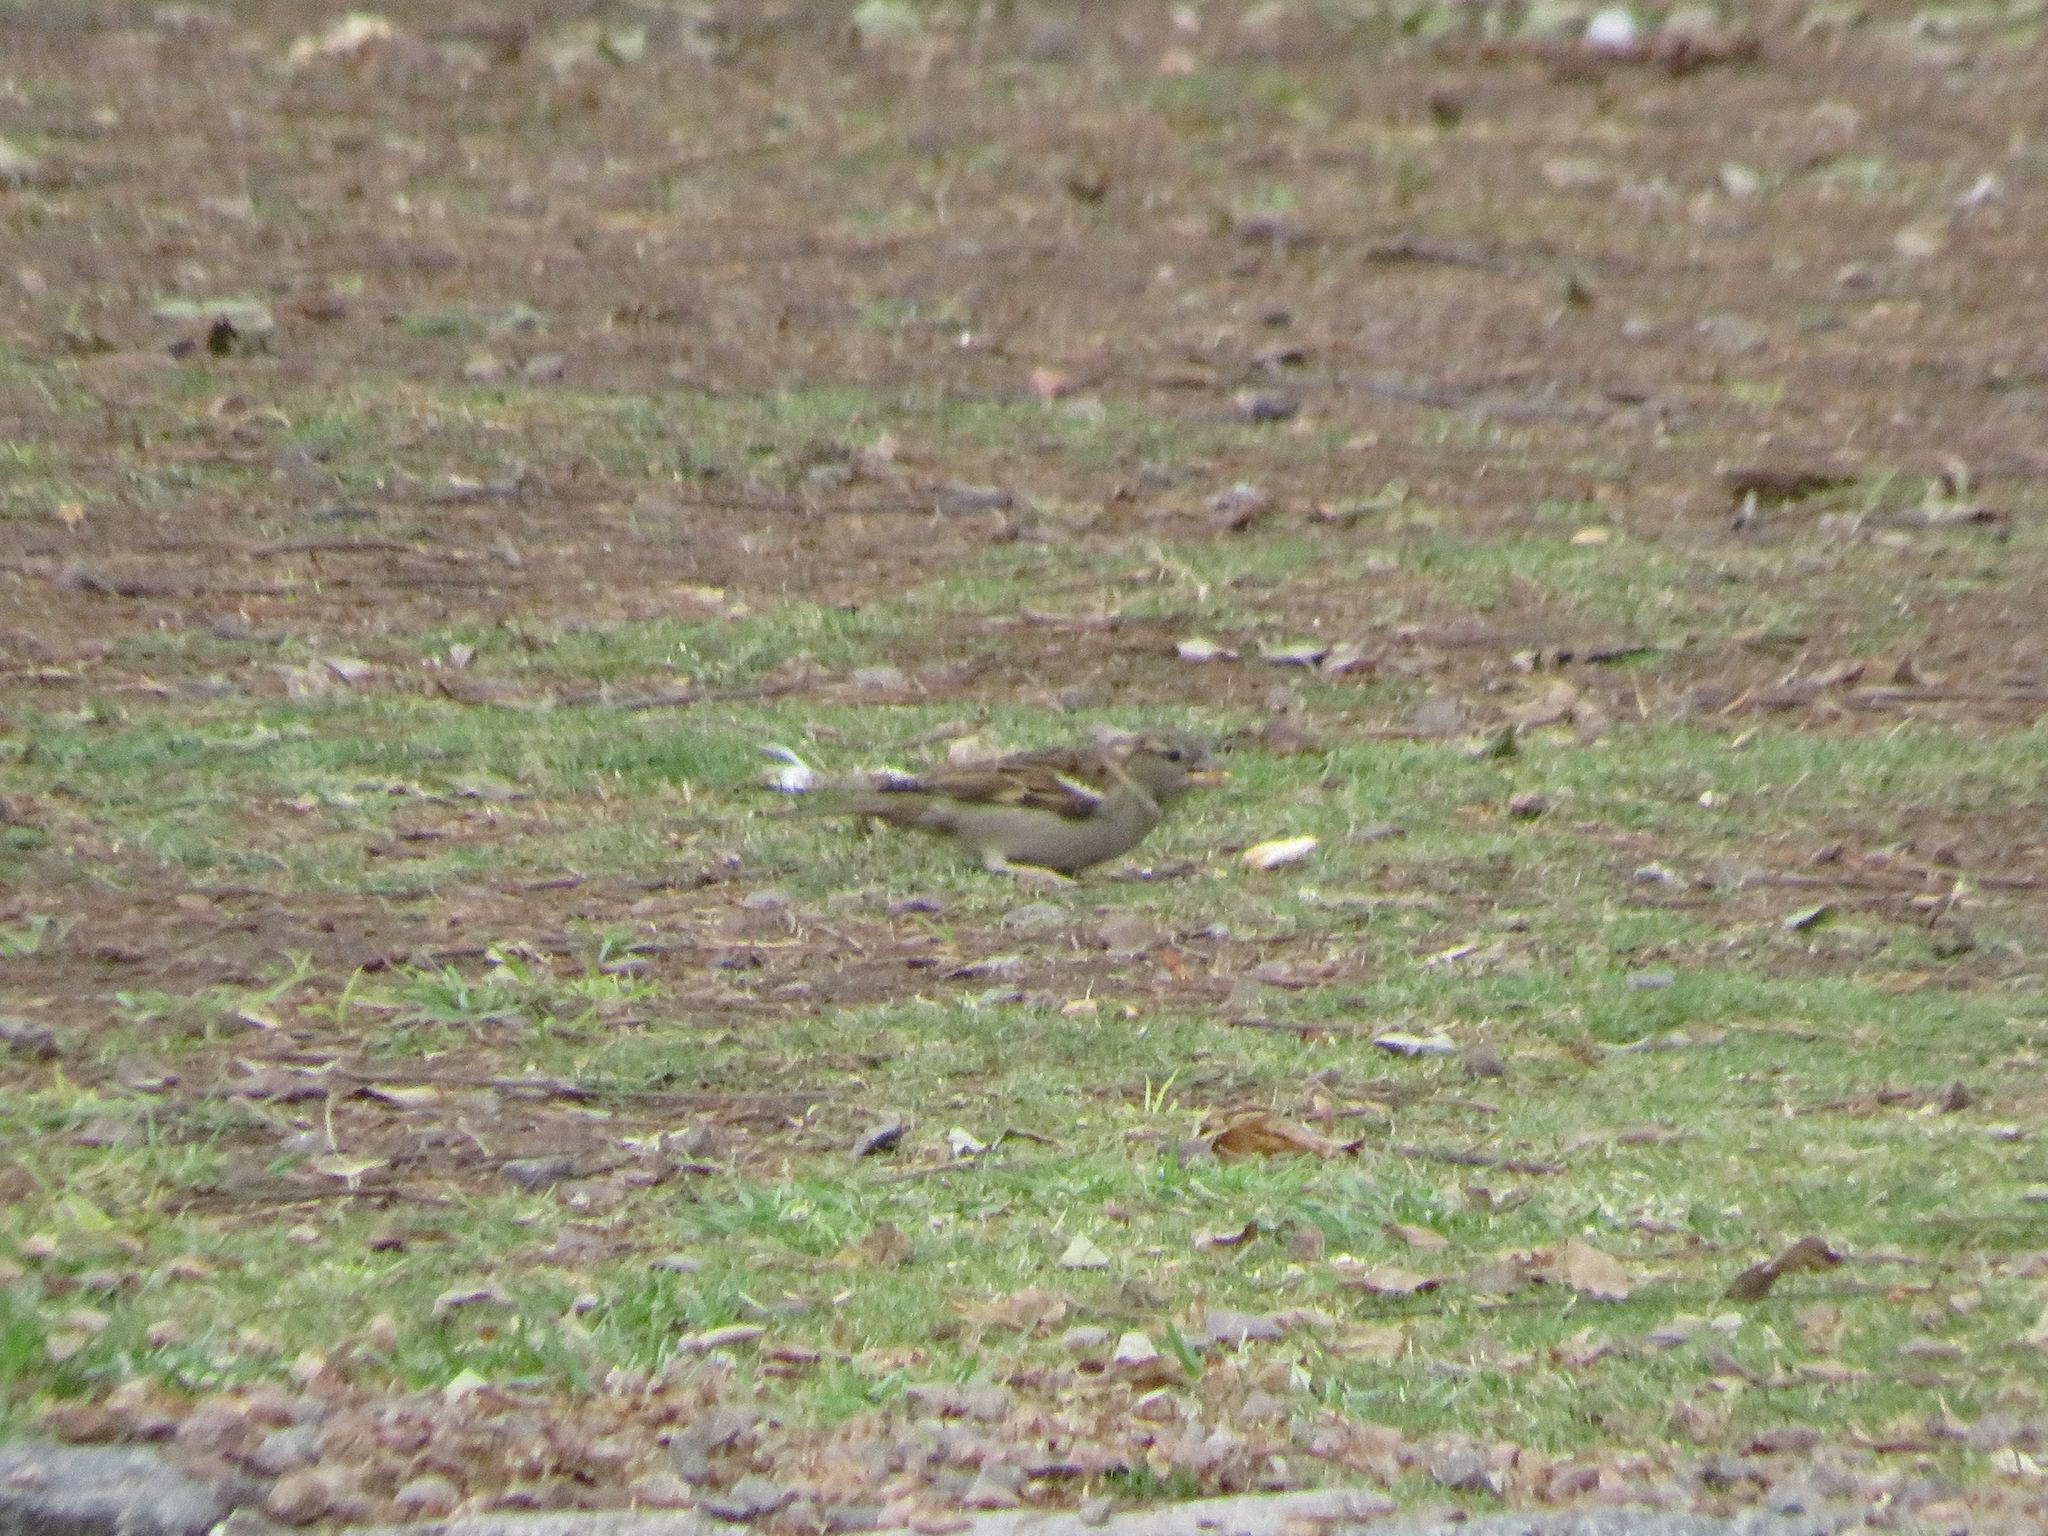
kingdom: Animalia
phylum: Chordata
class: Aves
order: Passeriformes
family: Passeridae
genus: Passer
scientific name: Passer domesticus
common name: House sparrow
